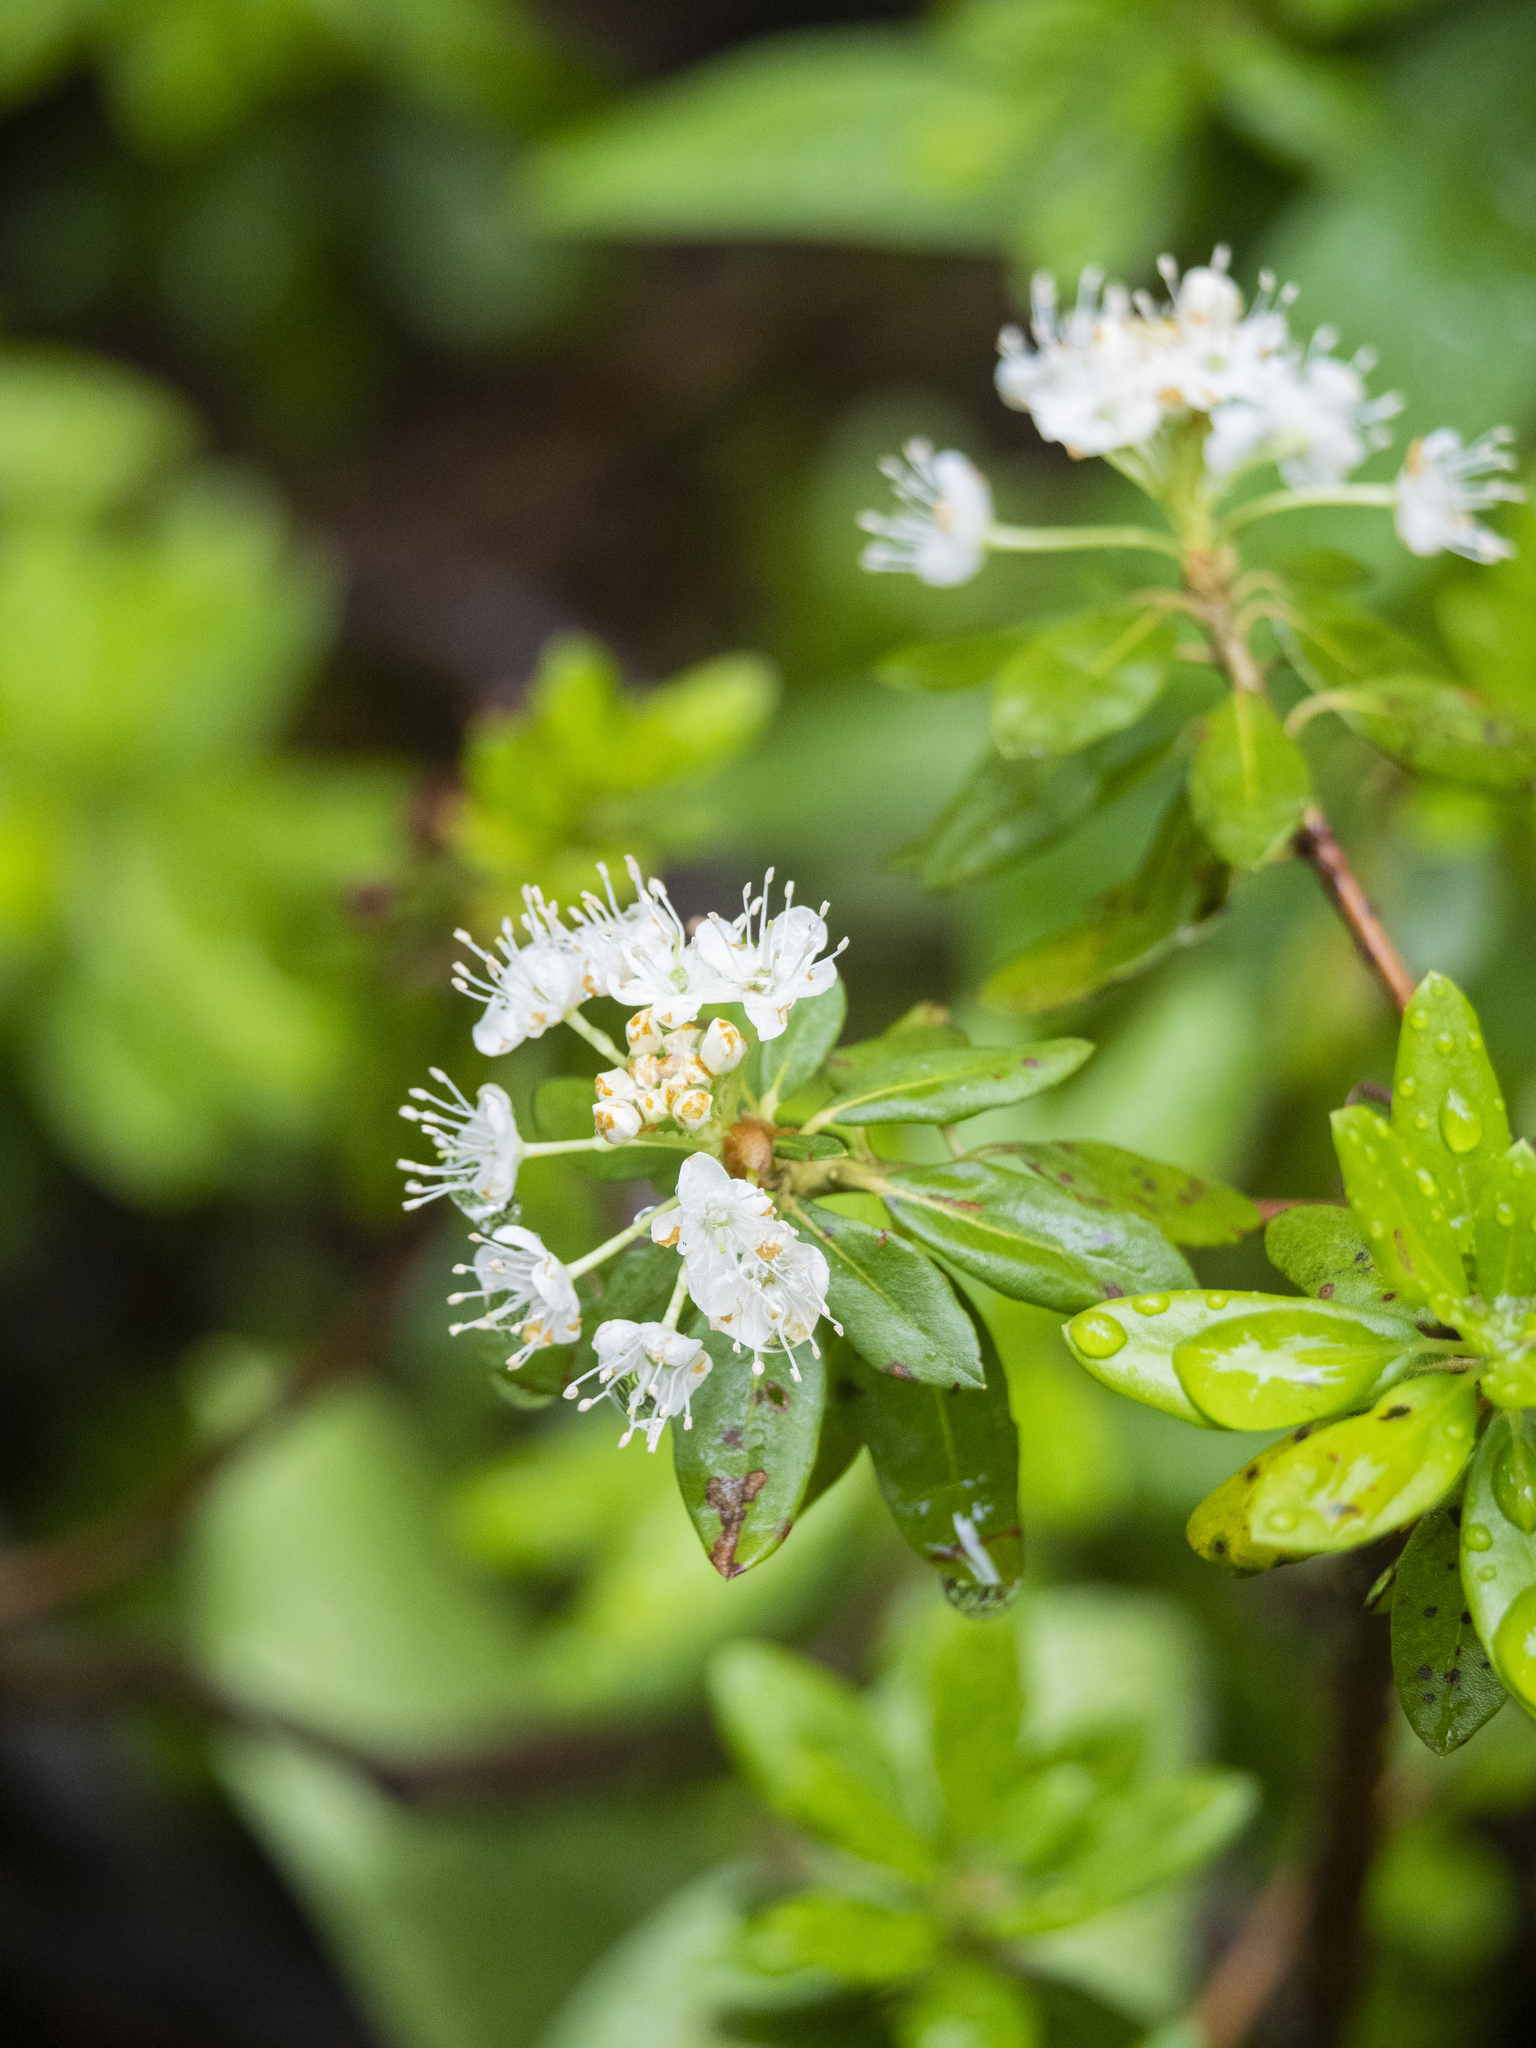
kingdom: Plantae
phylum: Tracheophyta
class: Magnoliopsida
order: Ericales
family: Ericaceae
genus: Rhododendron
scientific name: Rhododendron columbianum
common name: Western labrador tea
